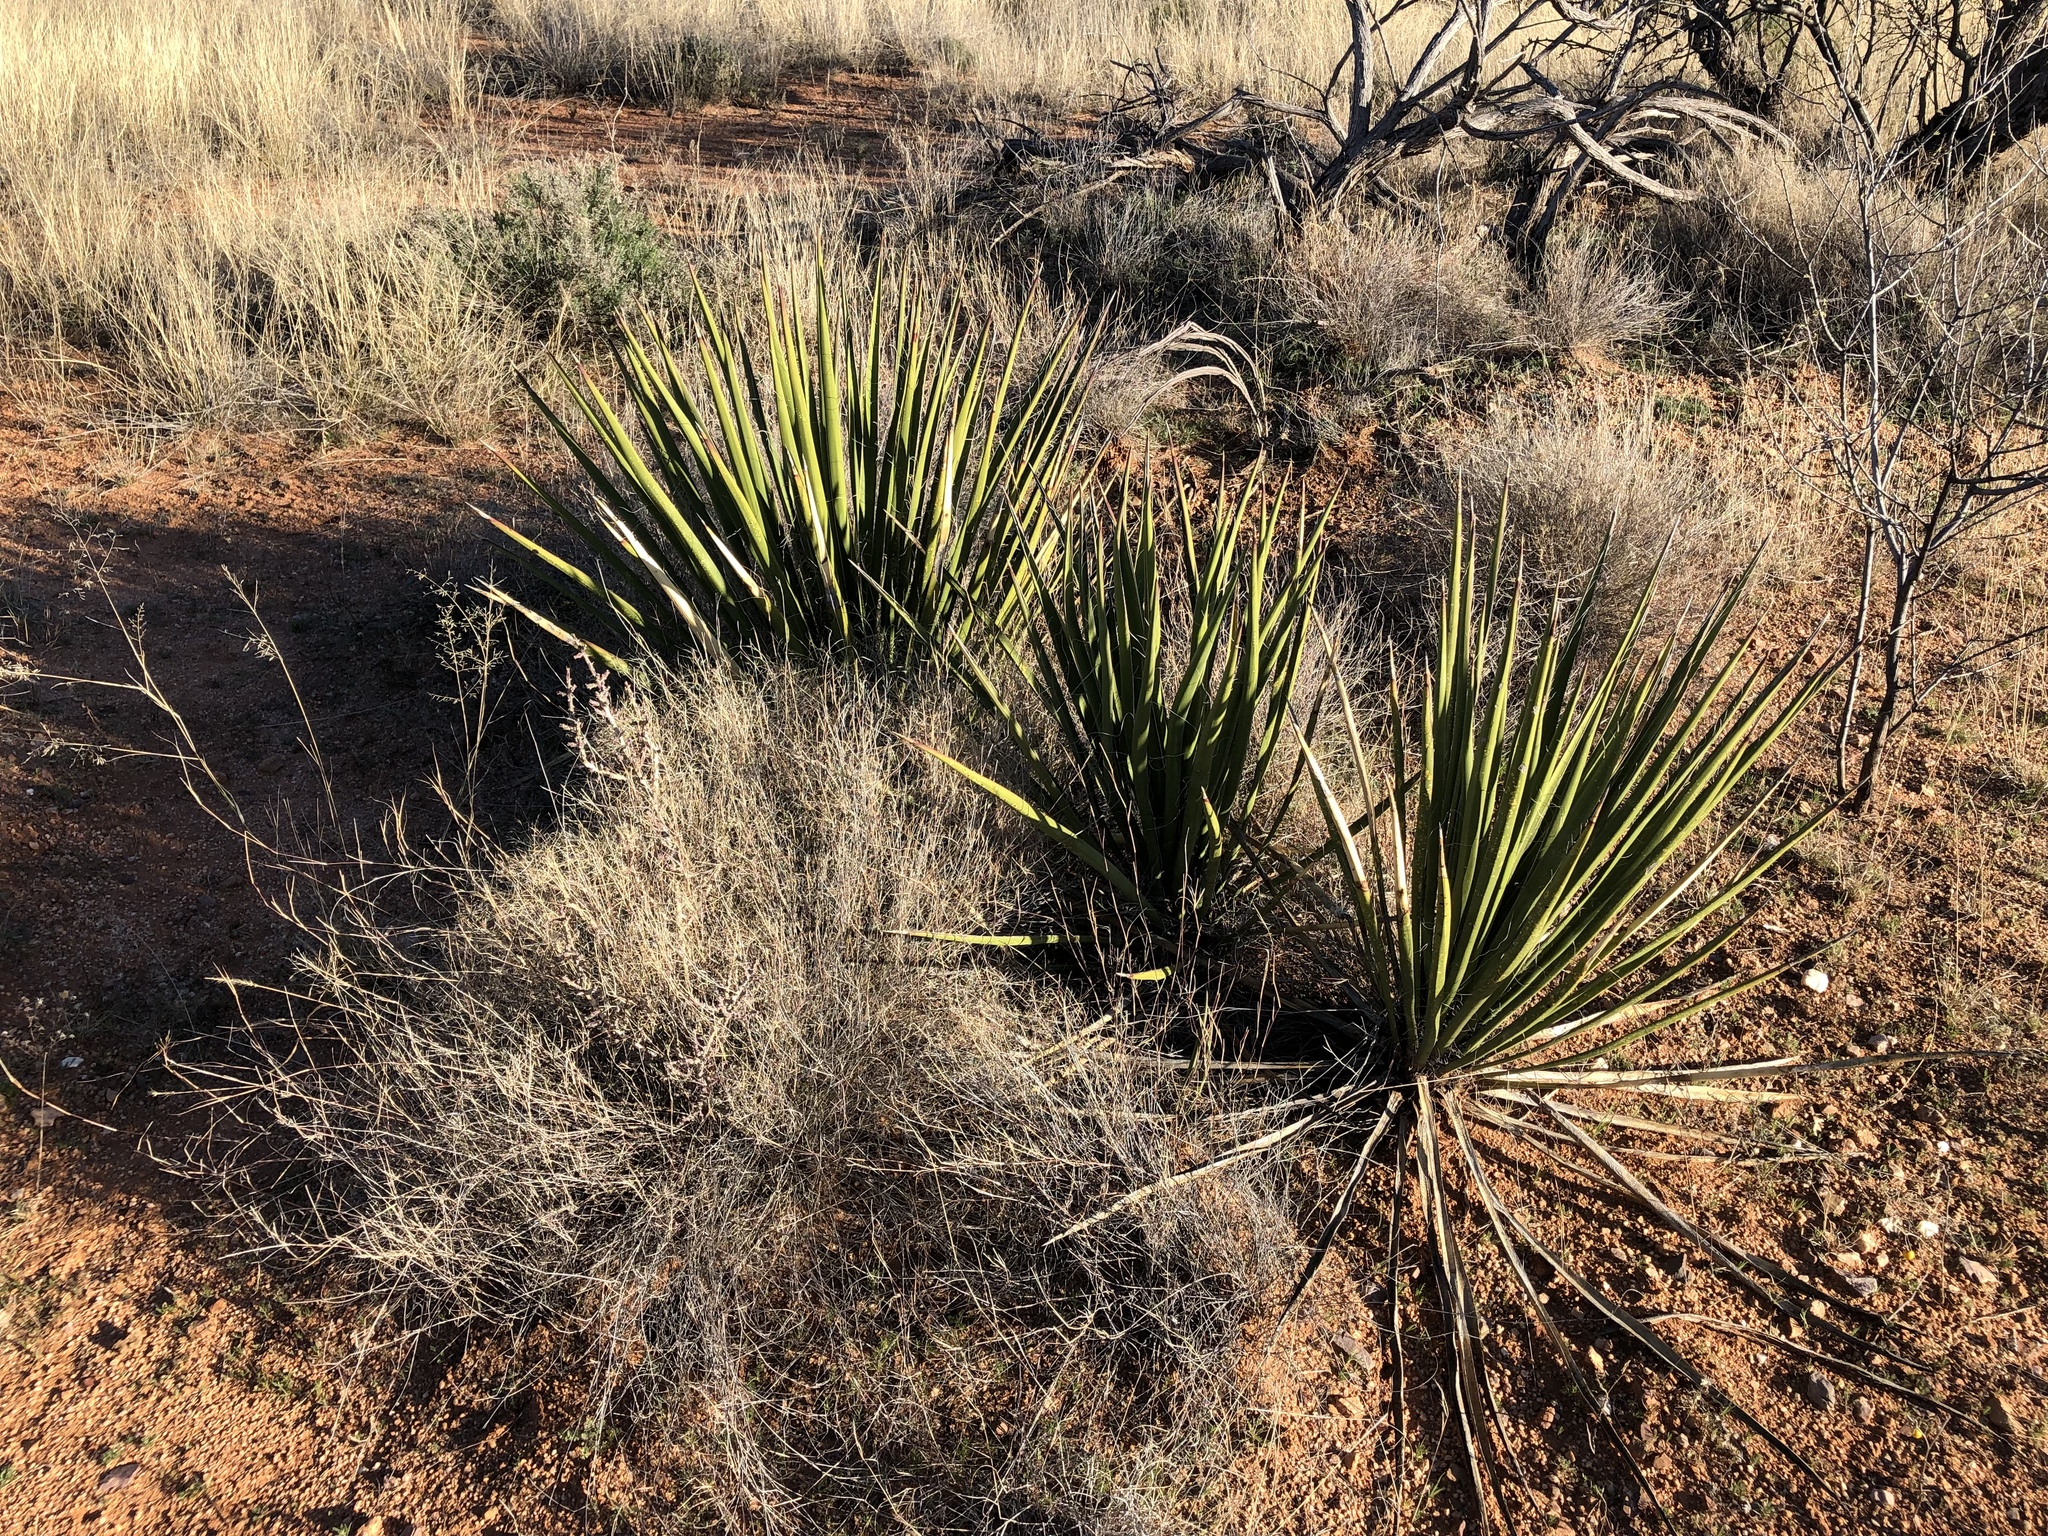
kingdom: Plantae
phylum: Tracheophyta
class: Liliopsida
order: Asparagales
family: Asparagaceae
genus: Yucca
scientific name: Yucca baccata
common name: Banana yucca
